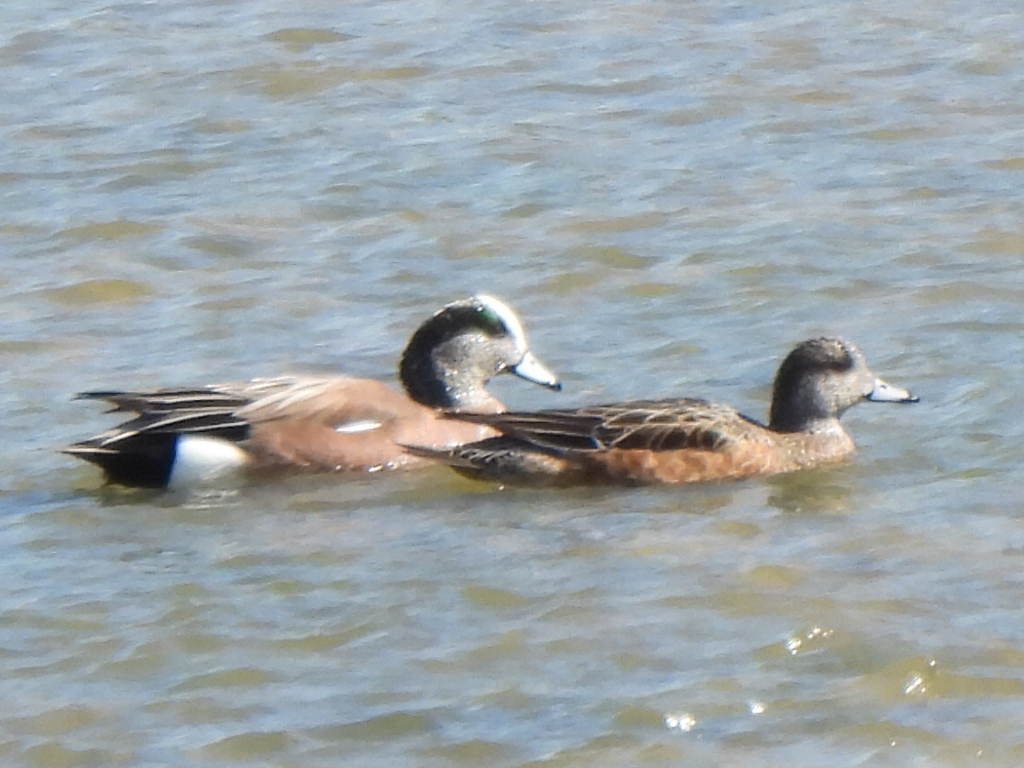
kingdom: Animalia
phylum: Chordata
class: Aves
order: Anseriformes
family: Anatidae
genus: Mareca
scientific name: Mareca americana
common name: American wigeon
